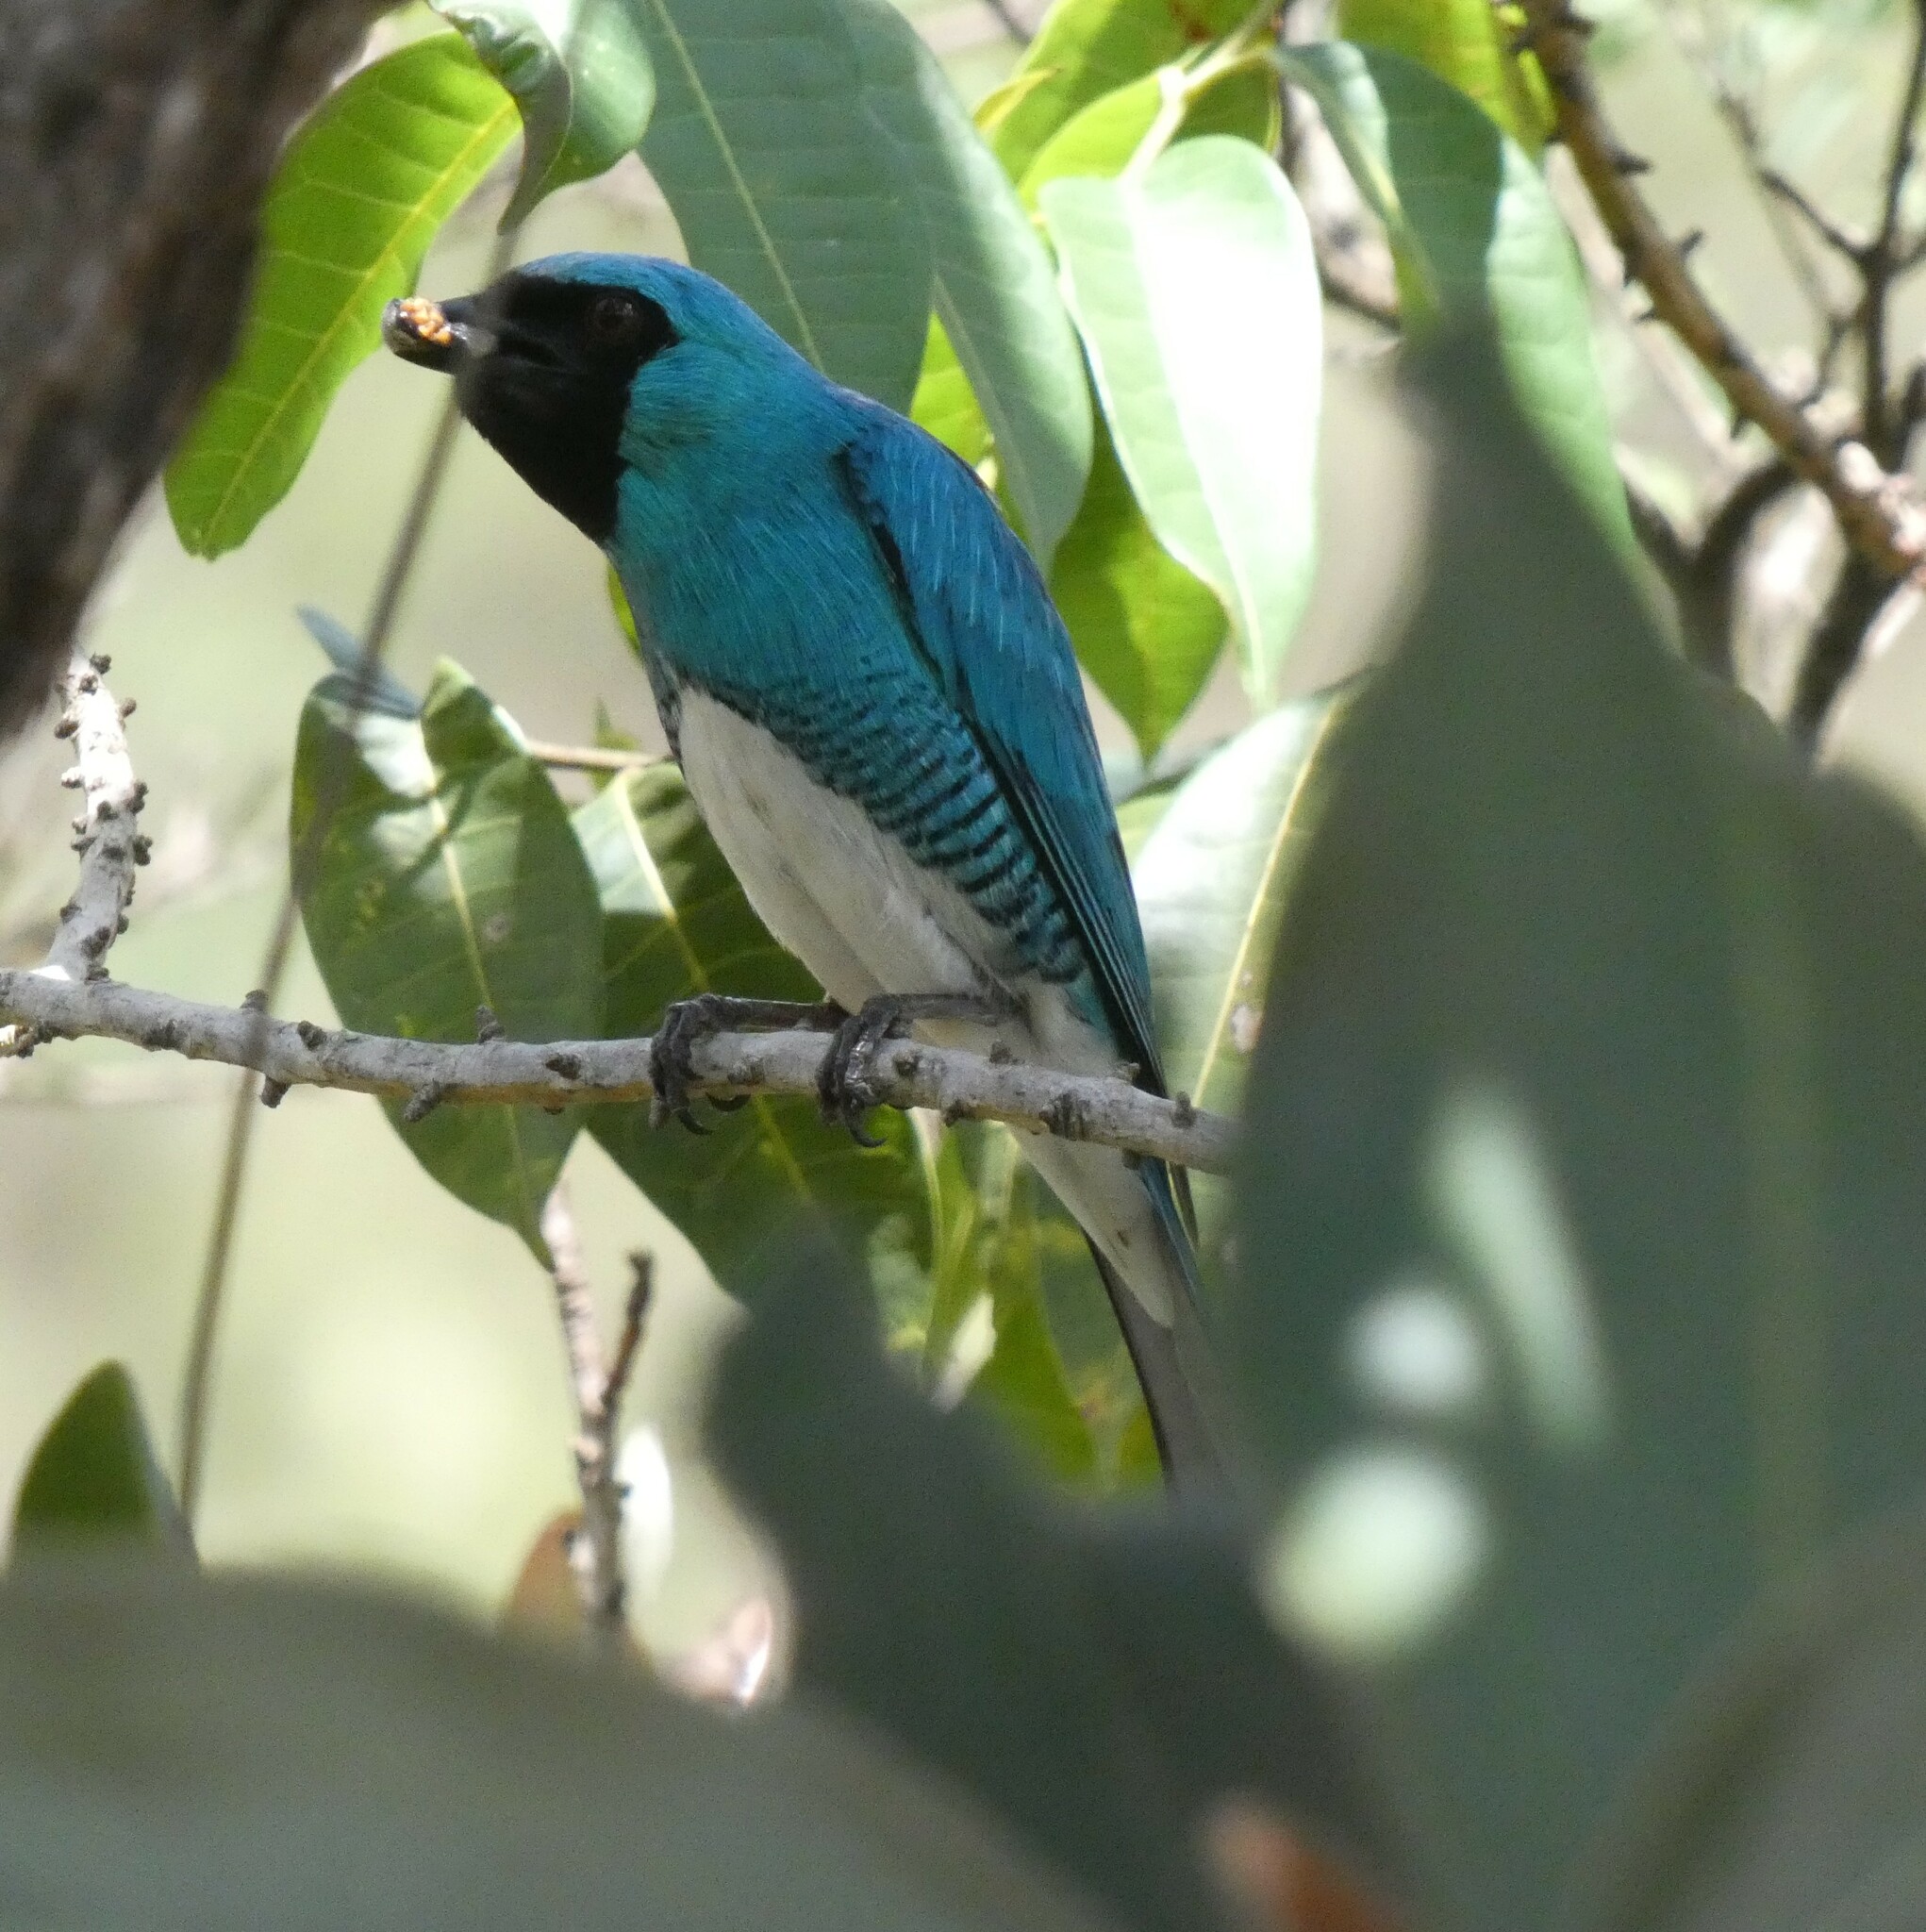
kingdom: Animalia
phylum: Chordata
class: Aves
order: Passeriformes
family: Thraupidae
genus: Tersina
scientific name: Tersina viridis
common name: Swallow tanager
